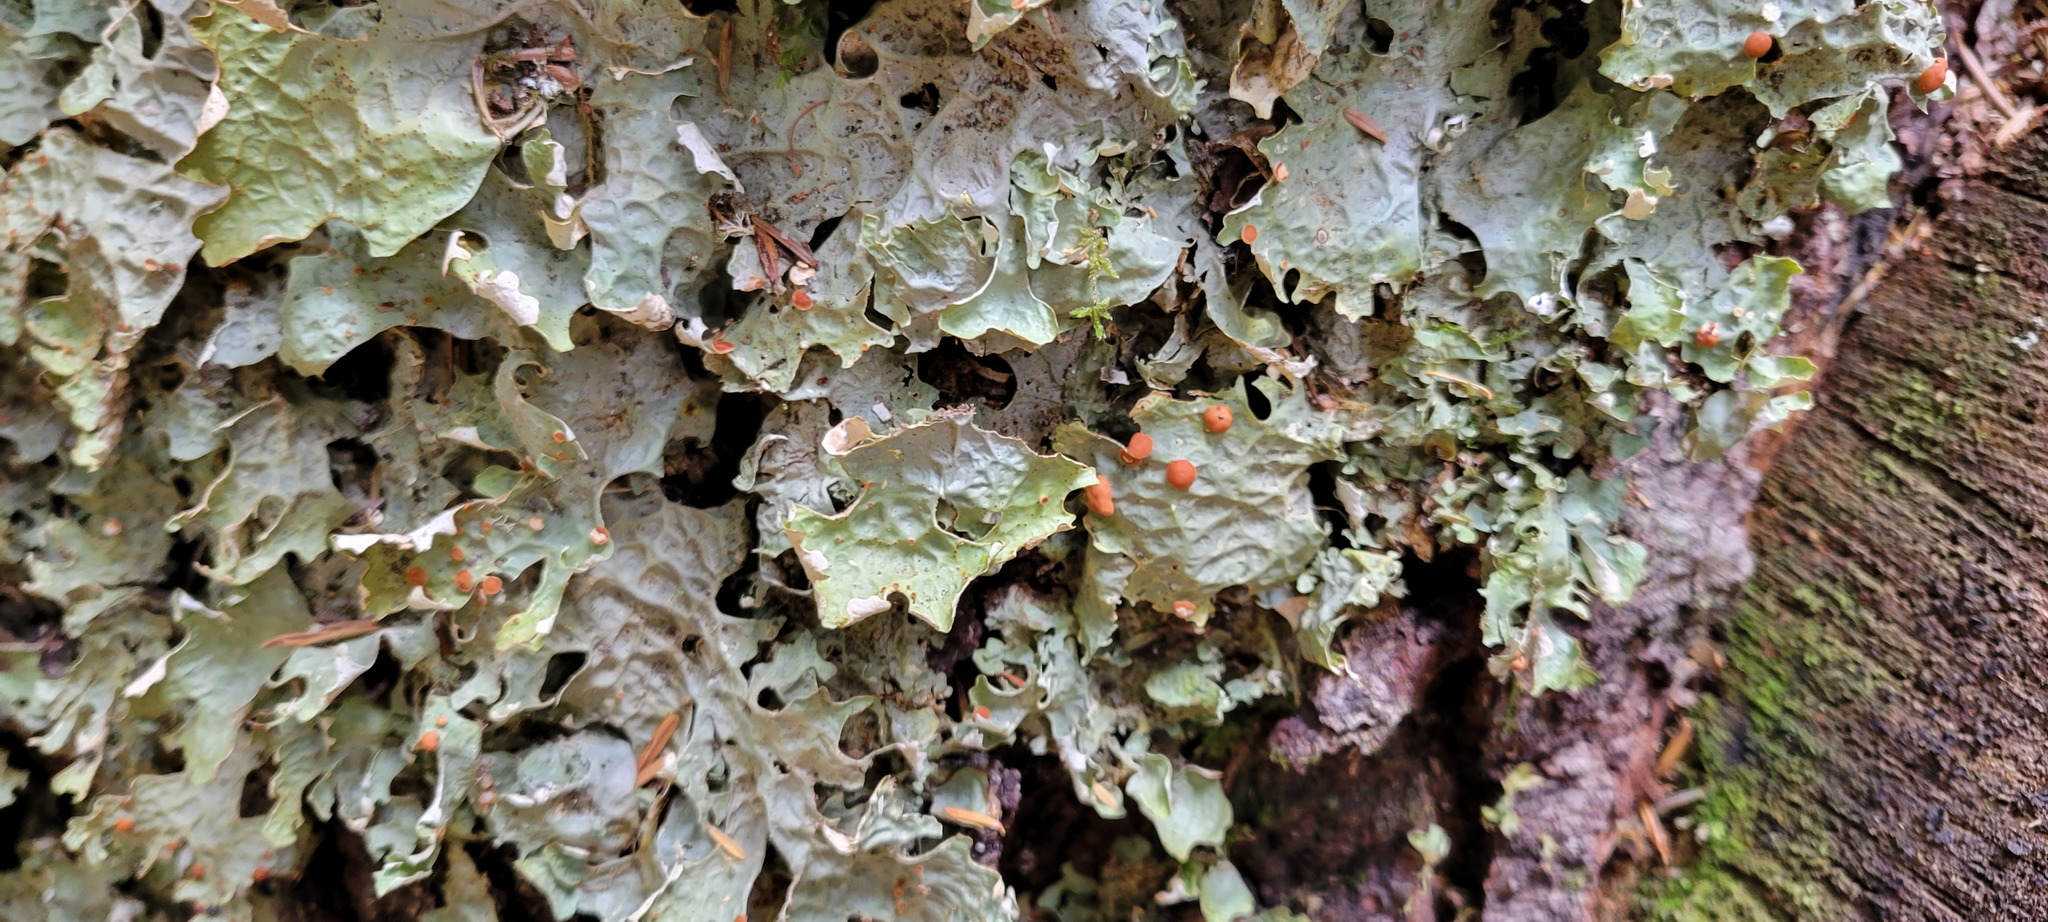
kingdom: Fungi
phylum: Ascomycota
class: Lecanoromycetes
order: Peltigerales
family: Lobariaceae
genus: Lobaria
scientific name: Lobaria linita
